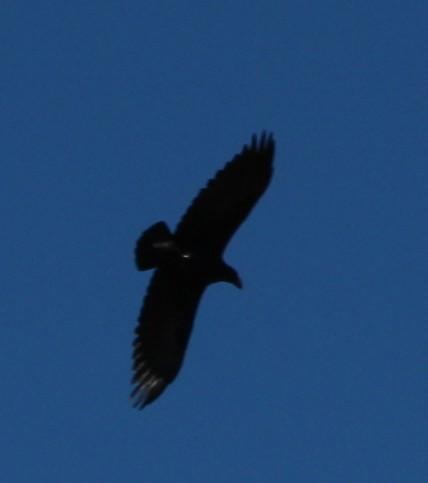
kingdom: Animalia
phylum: Chordata
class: Aves
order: Passeriformes
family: Corvidae
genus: Corvus
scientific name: Corvus albicollis
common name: White-necked raven
